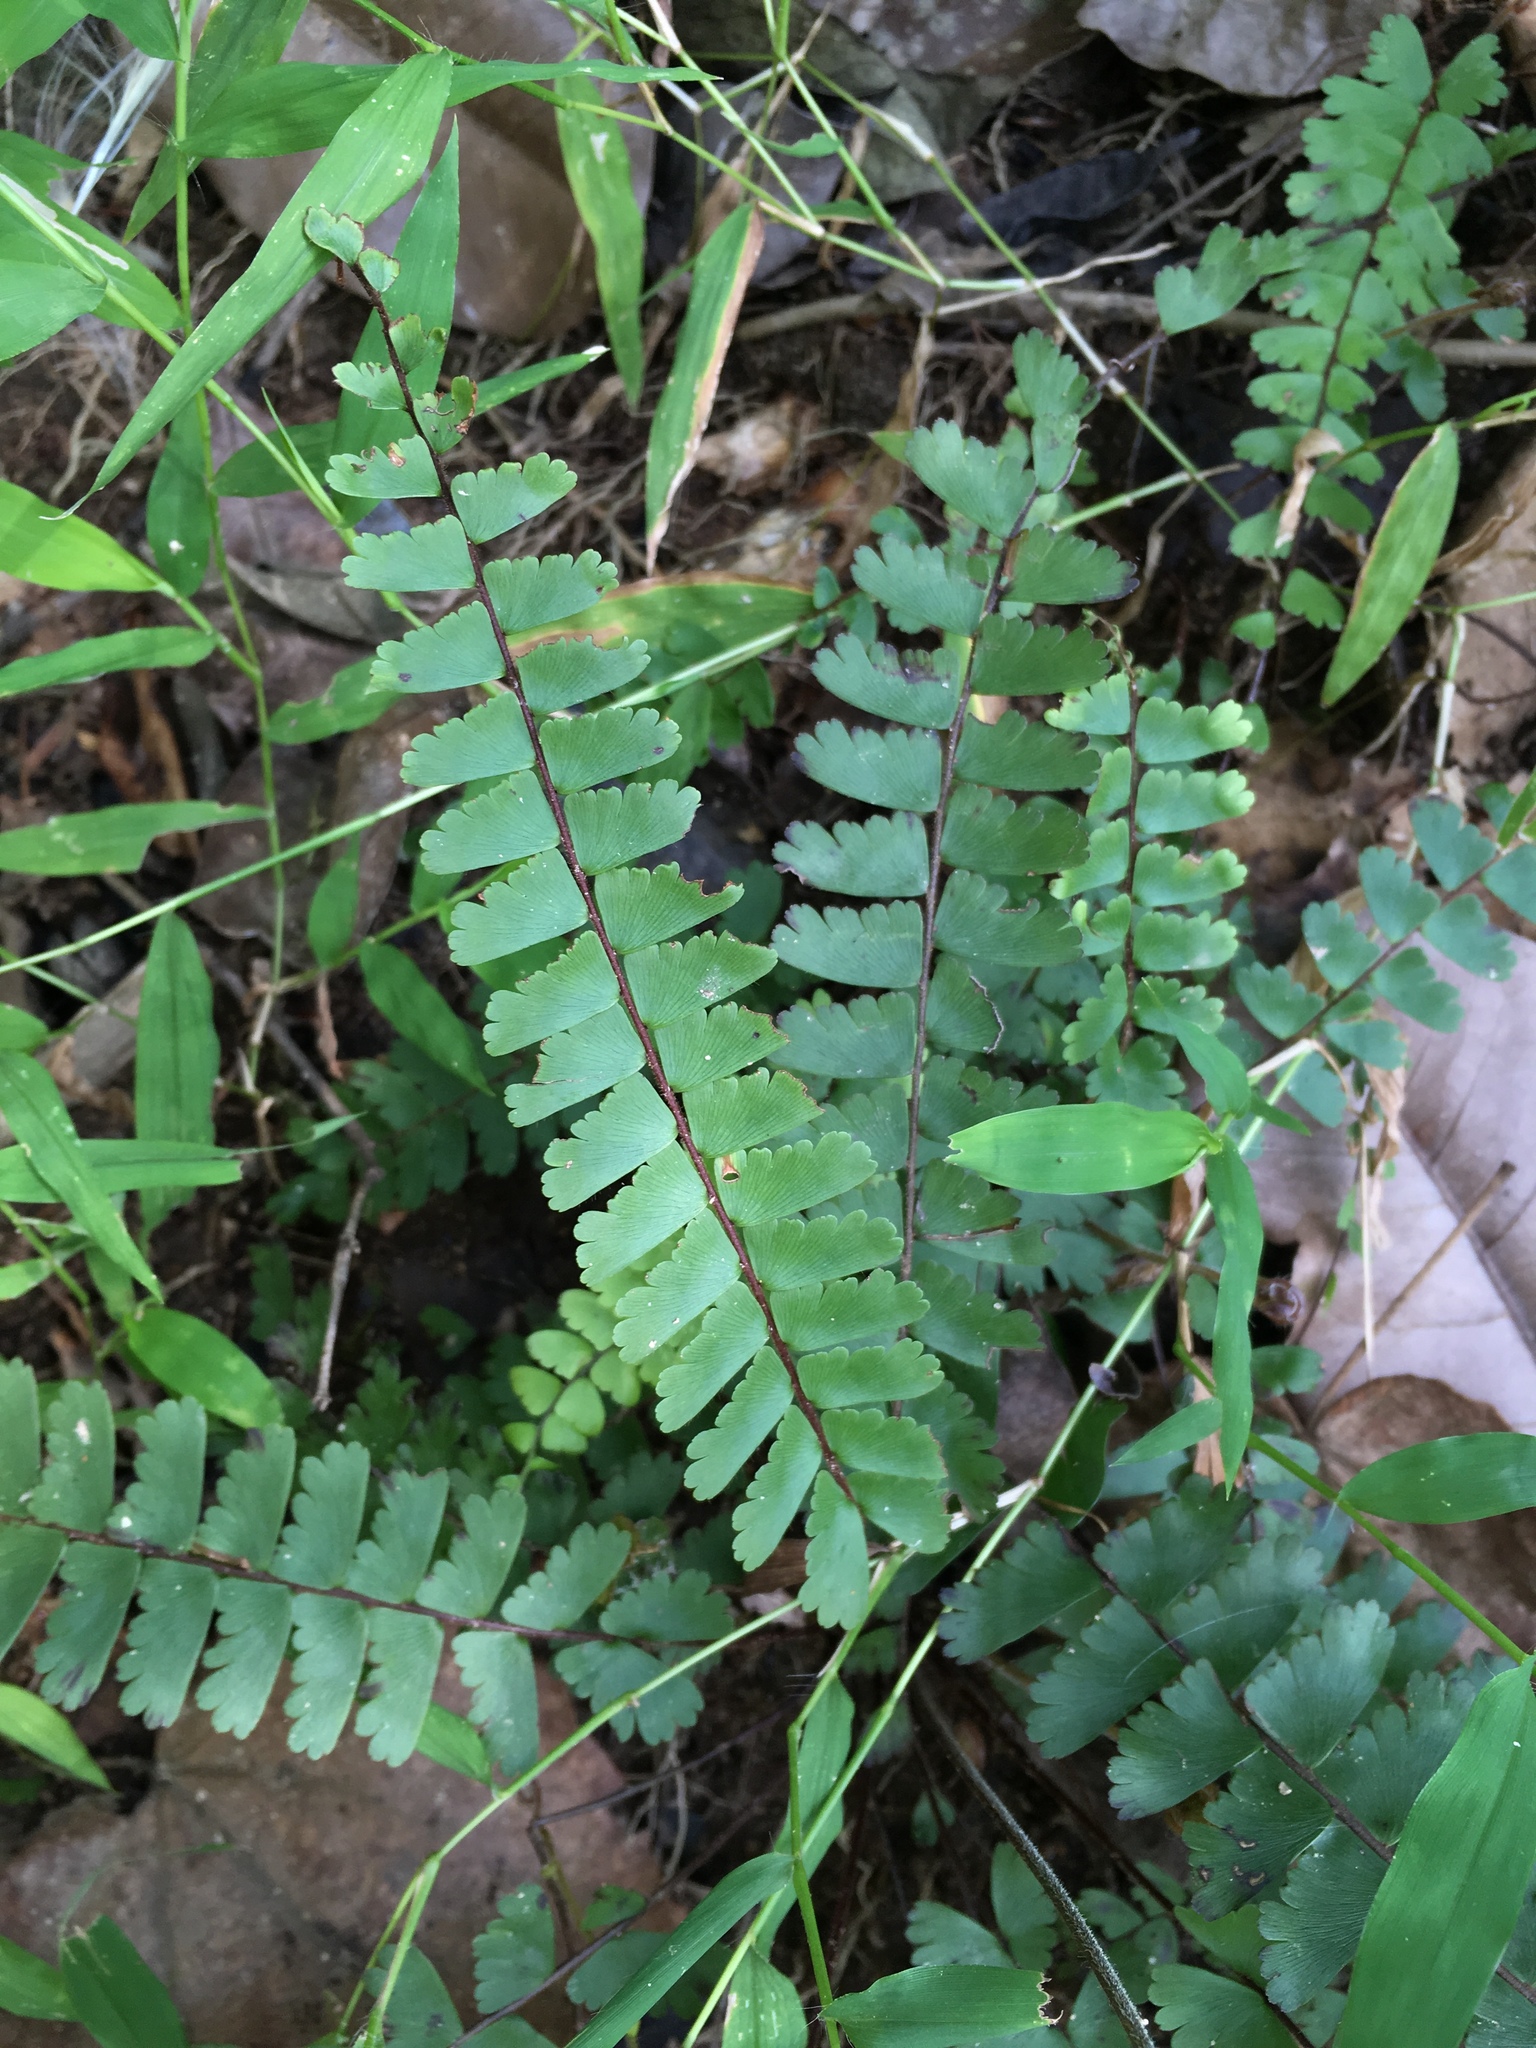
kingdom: Plantae
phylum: Tracheophyta
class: Polypodiopsida
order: Polypodiales
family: Pteridaceae
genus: Adiantum
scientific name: Adiantum zollingeri
